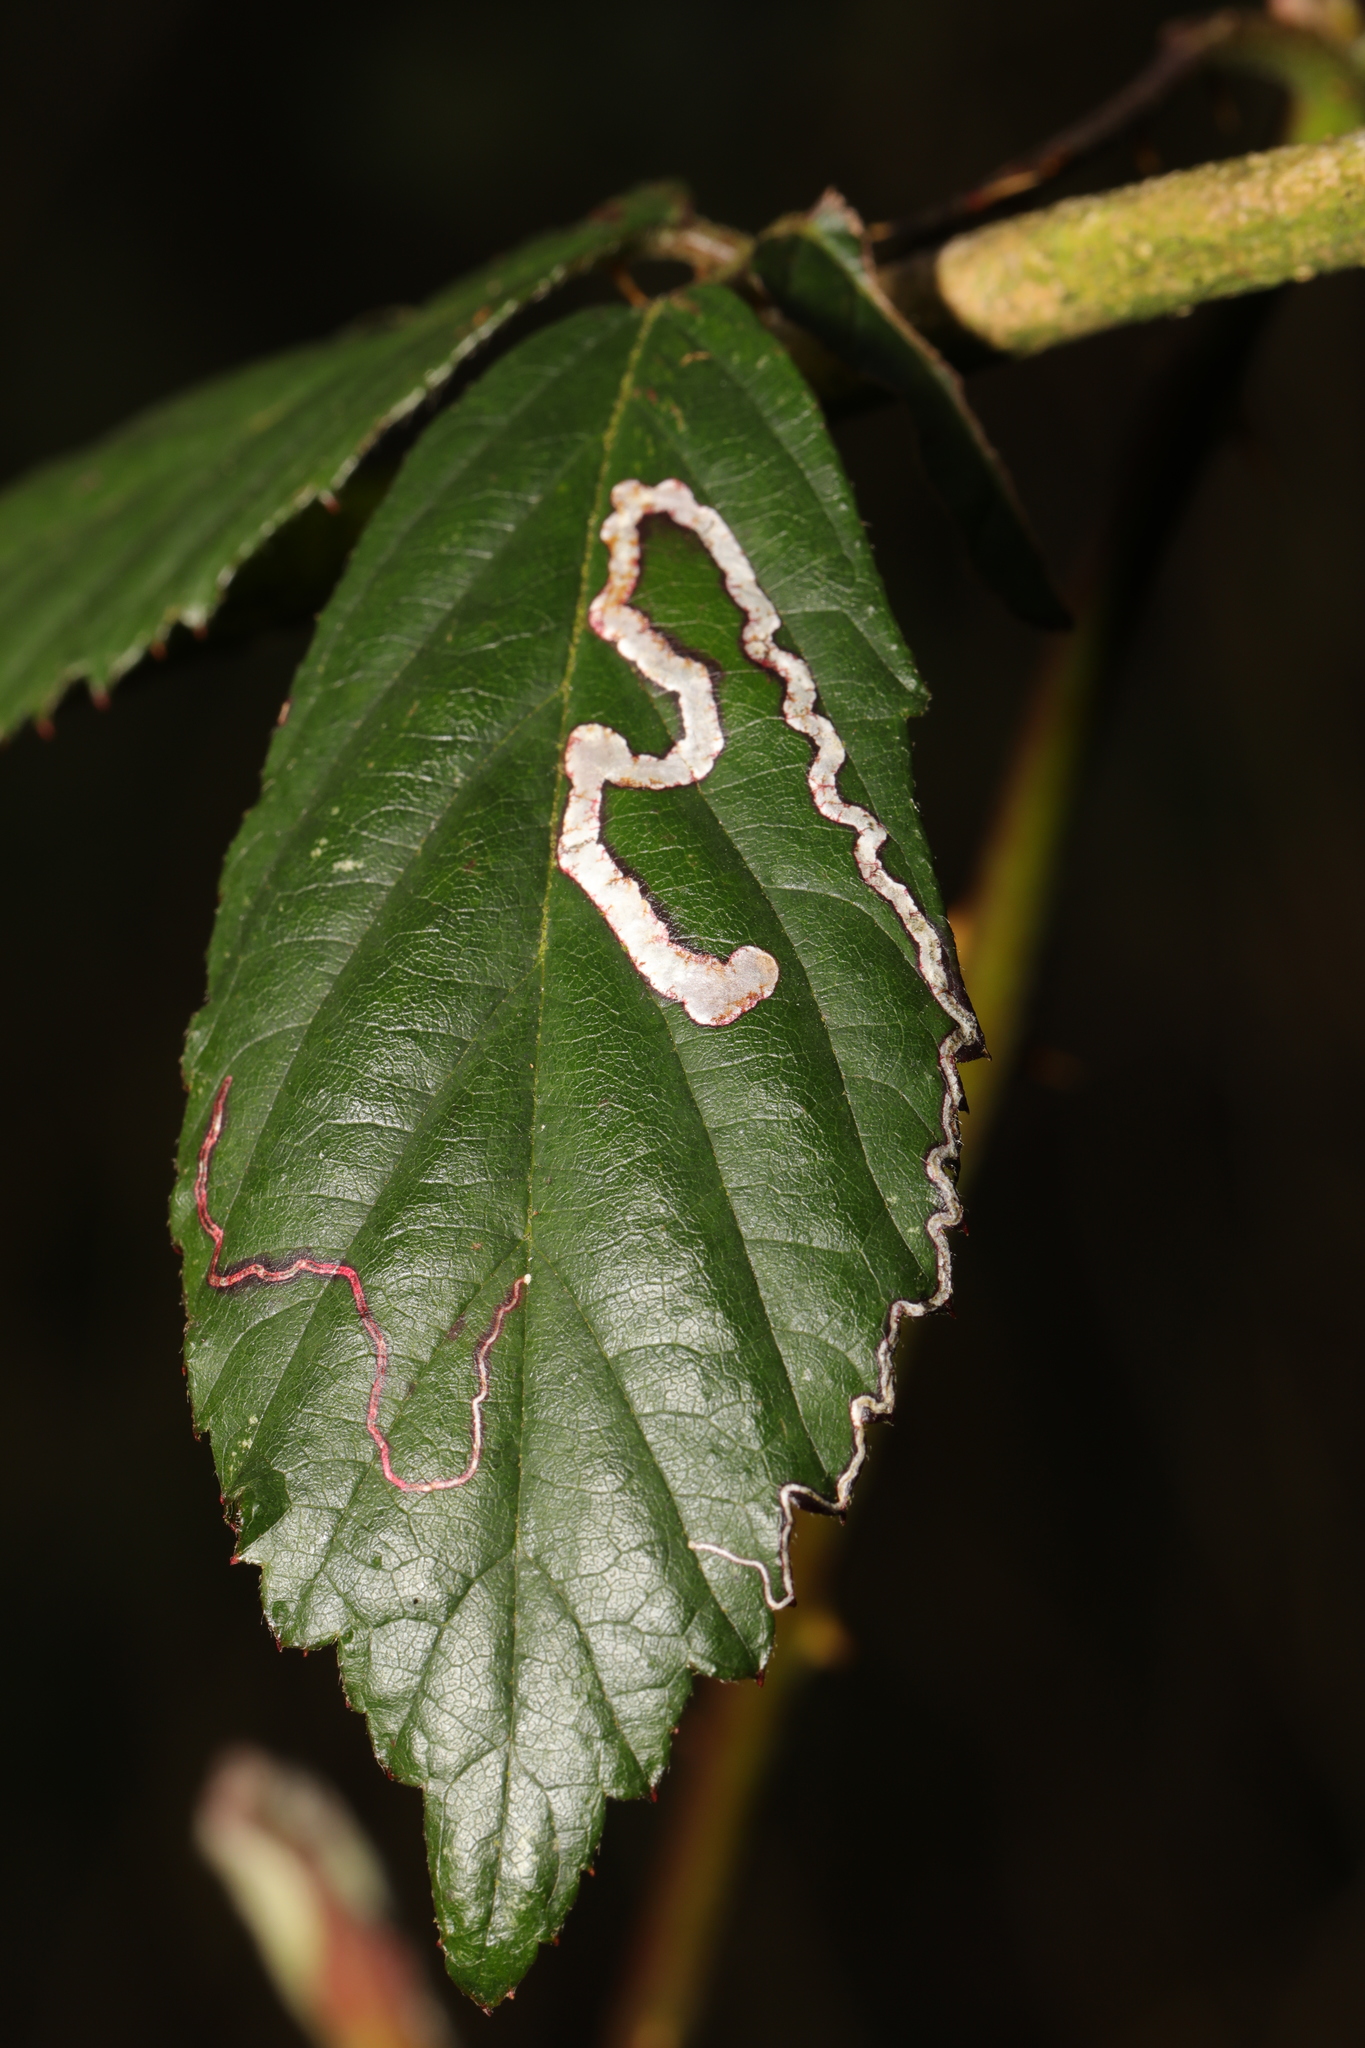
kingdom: Animalia
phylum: Arthropoda
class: Insecta
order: Lepidoptera
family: Nepticulidae
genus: Stigmella
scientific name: Stigmella aurella
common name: Golden pigmy
